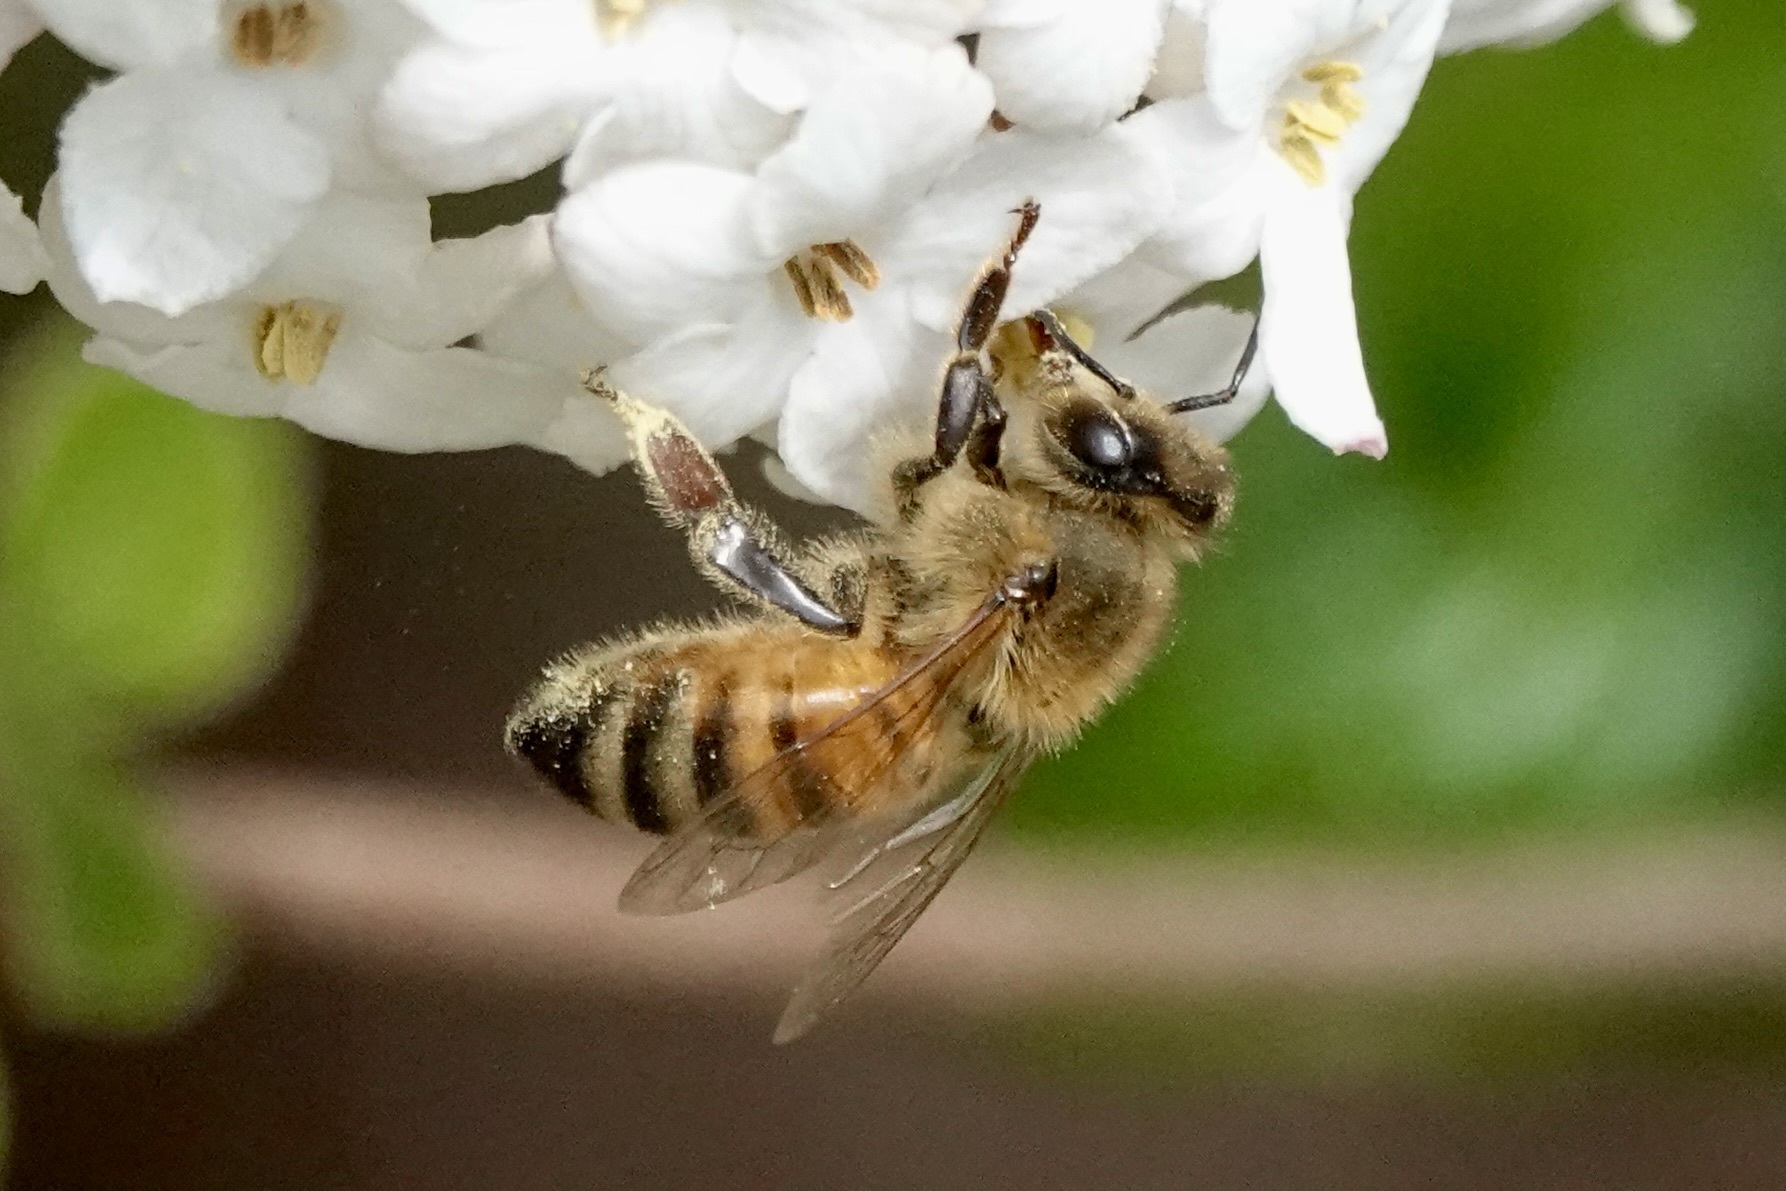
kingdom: Animalia
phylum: Arthropoda
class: Insecta
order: Hymenoptera
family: Apidae
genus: Apis
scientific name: Apis mellifera
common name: Honey bee
